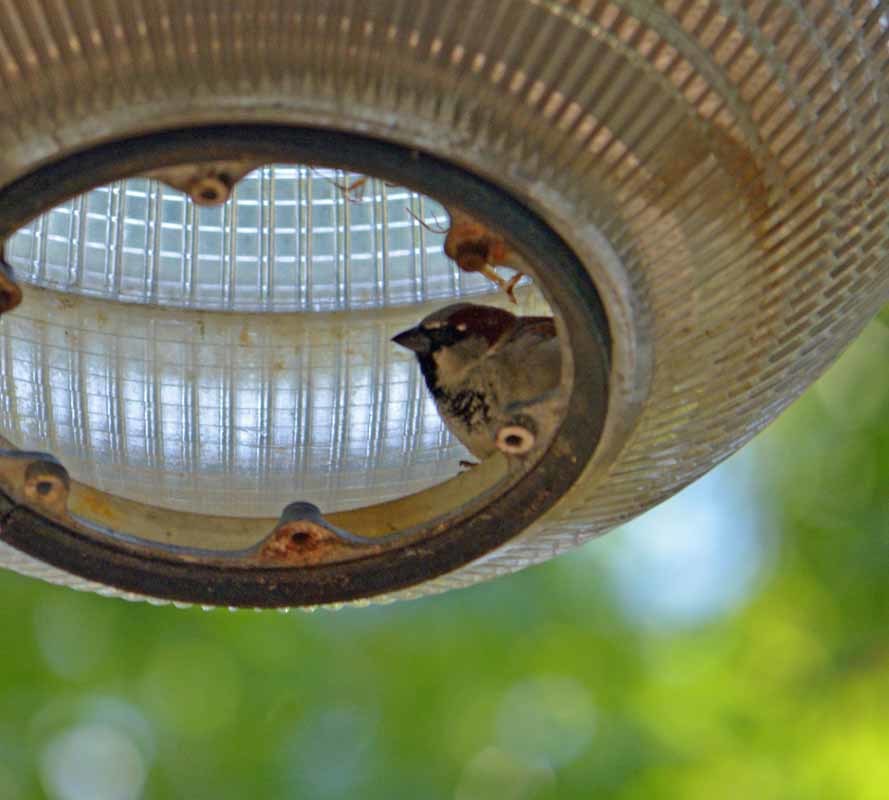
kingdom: Animalia
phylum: Chordata
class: Aves
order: Passeriformes
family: Passeridae
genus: Passer
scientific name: Passer domesticus
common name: House sparrow
